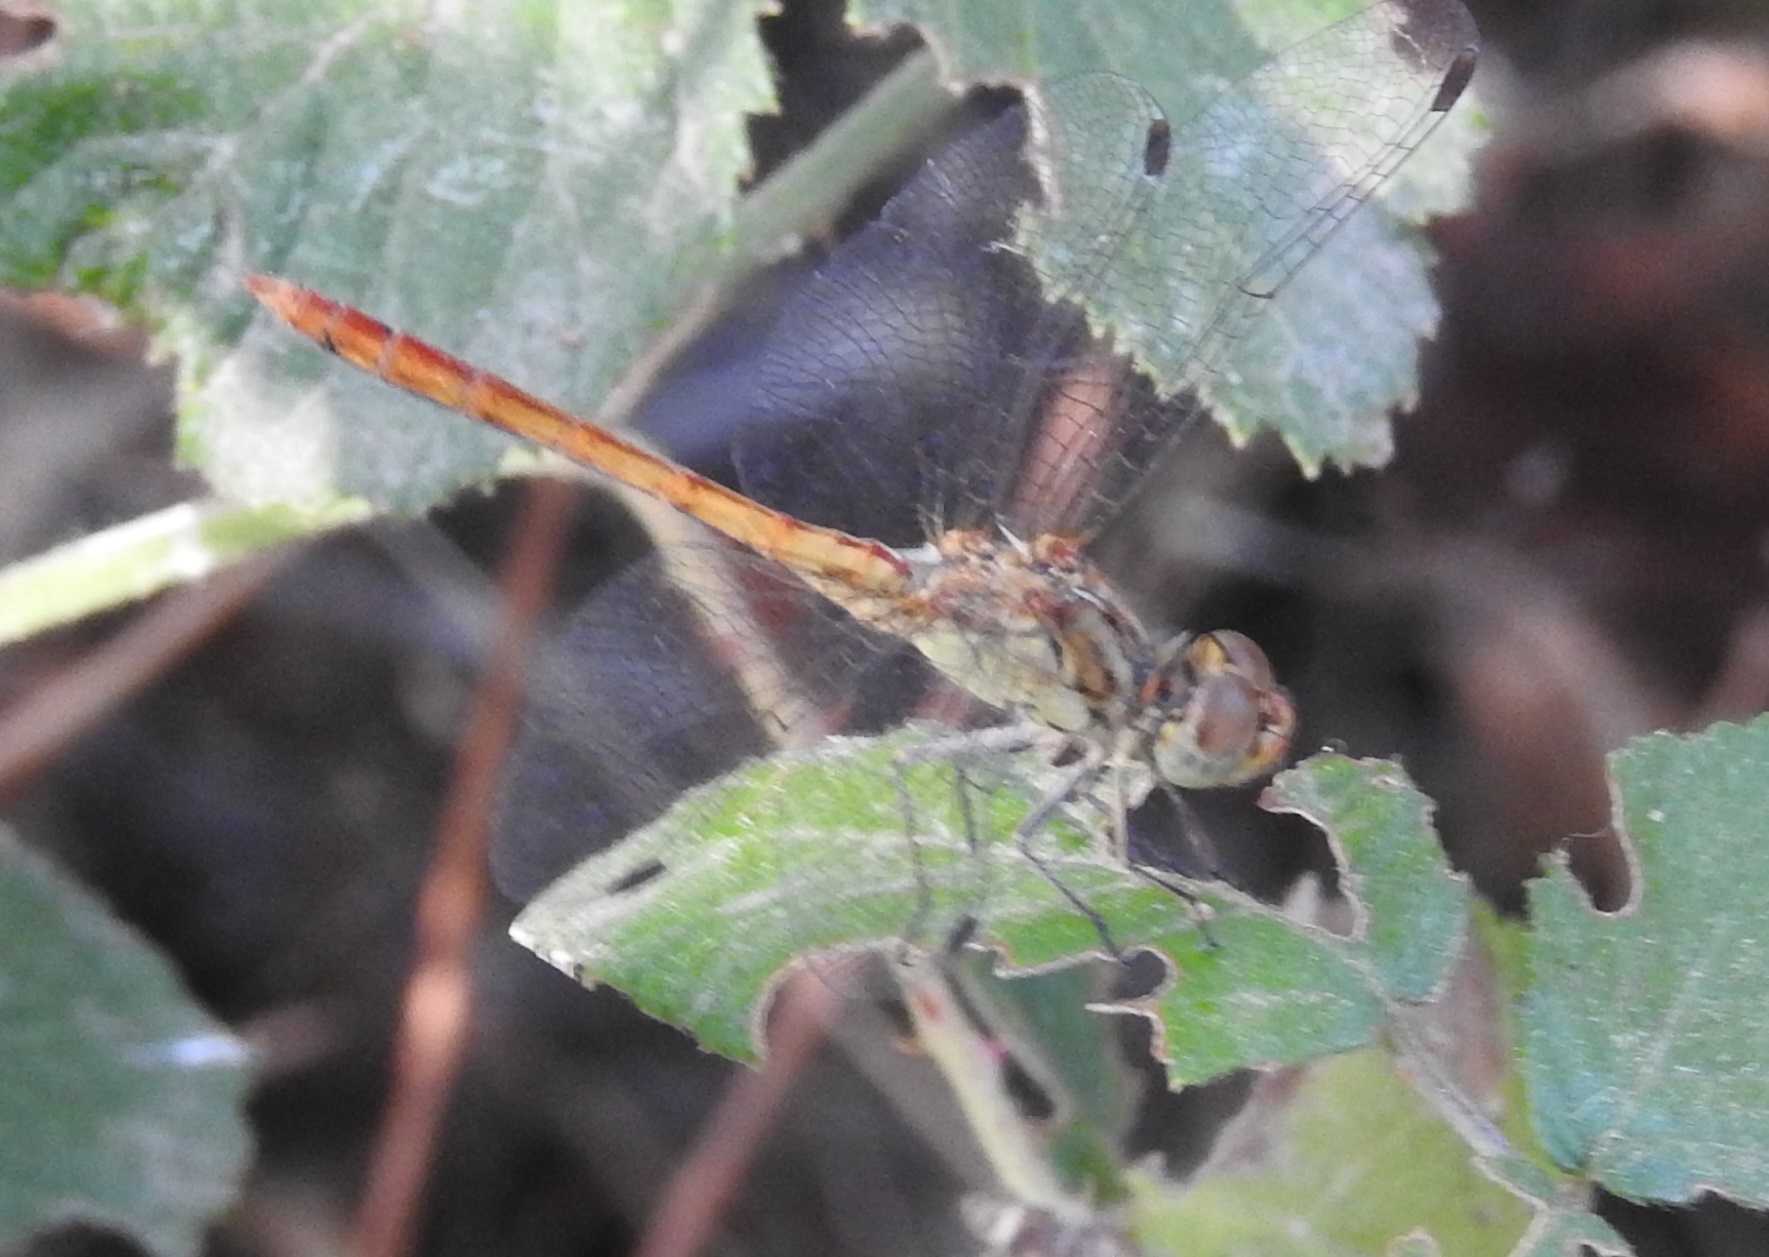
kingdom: Animalia
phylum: Arthropoda
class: Insecta
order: Odonata
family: Libellulidae
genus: Sympetrum
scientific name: Sympetrum sinaiticum
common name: Desert darter
